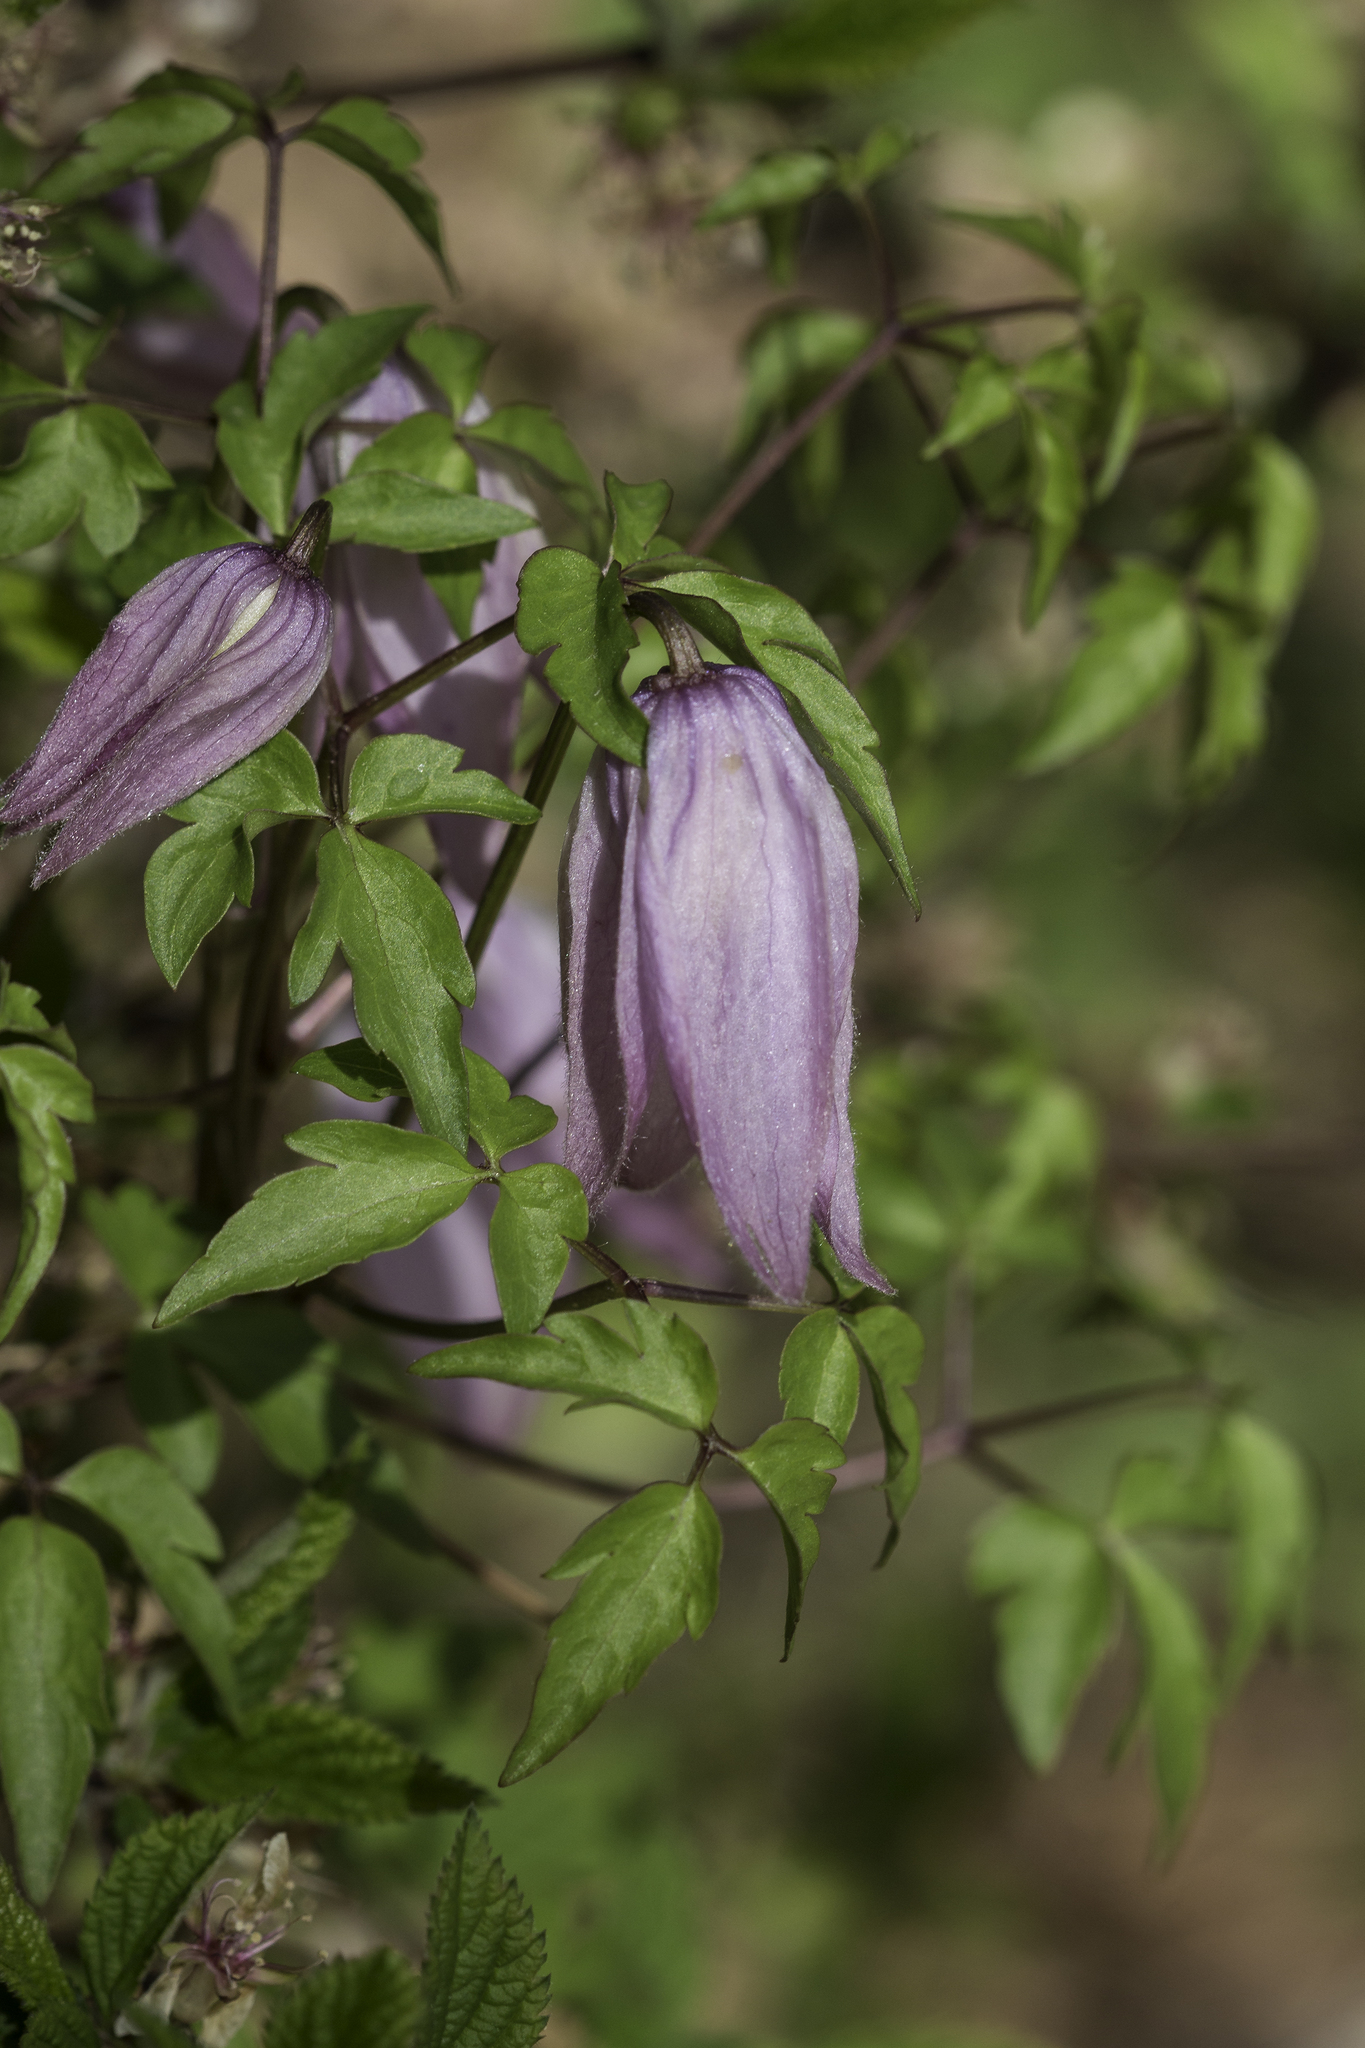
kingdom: Plantae
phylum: Tracheophyta
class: Magnoliopsida
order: Ranunculales
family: Ranunculaceae
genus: Clematis
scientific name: Clematis columbiana
